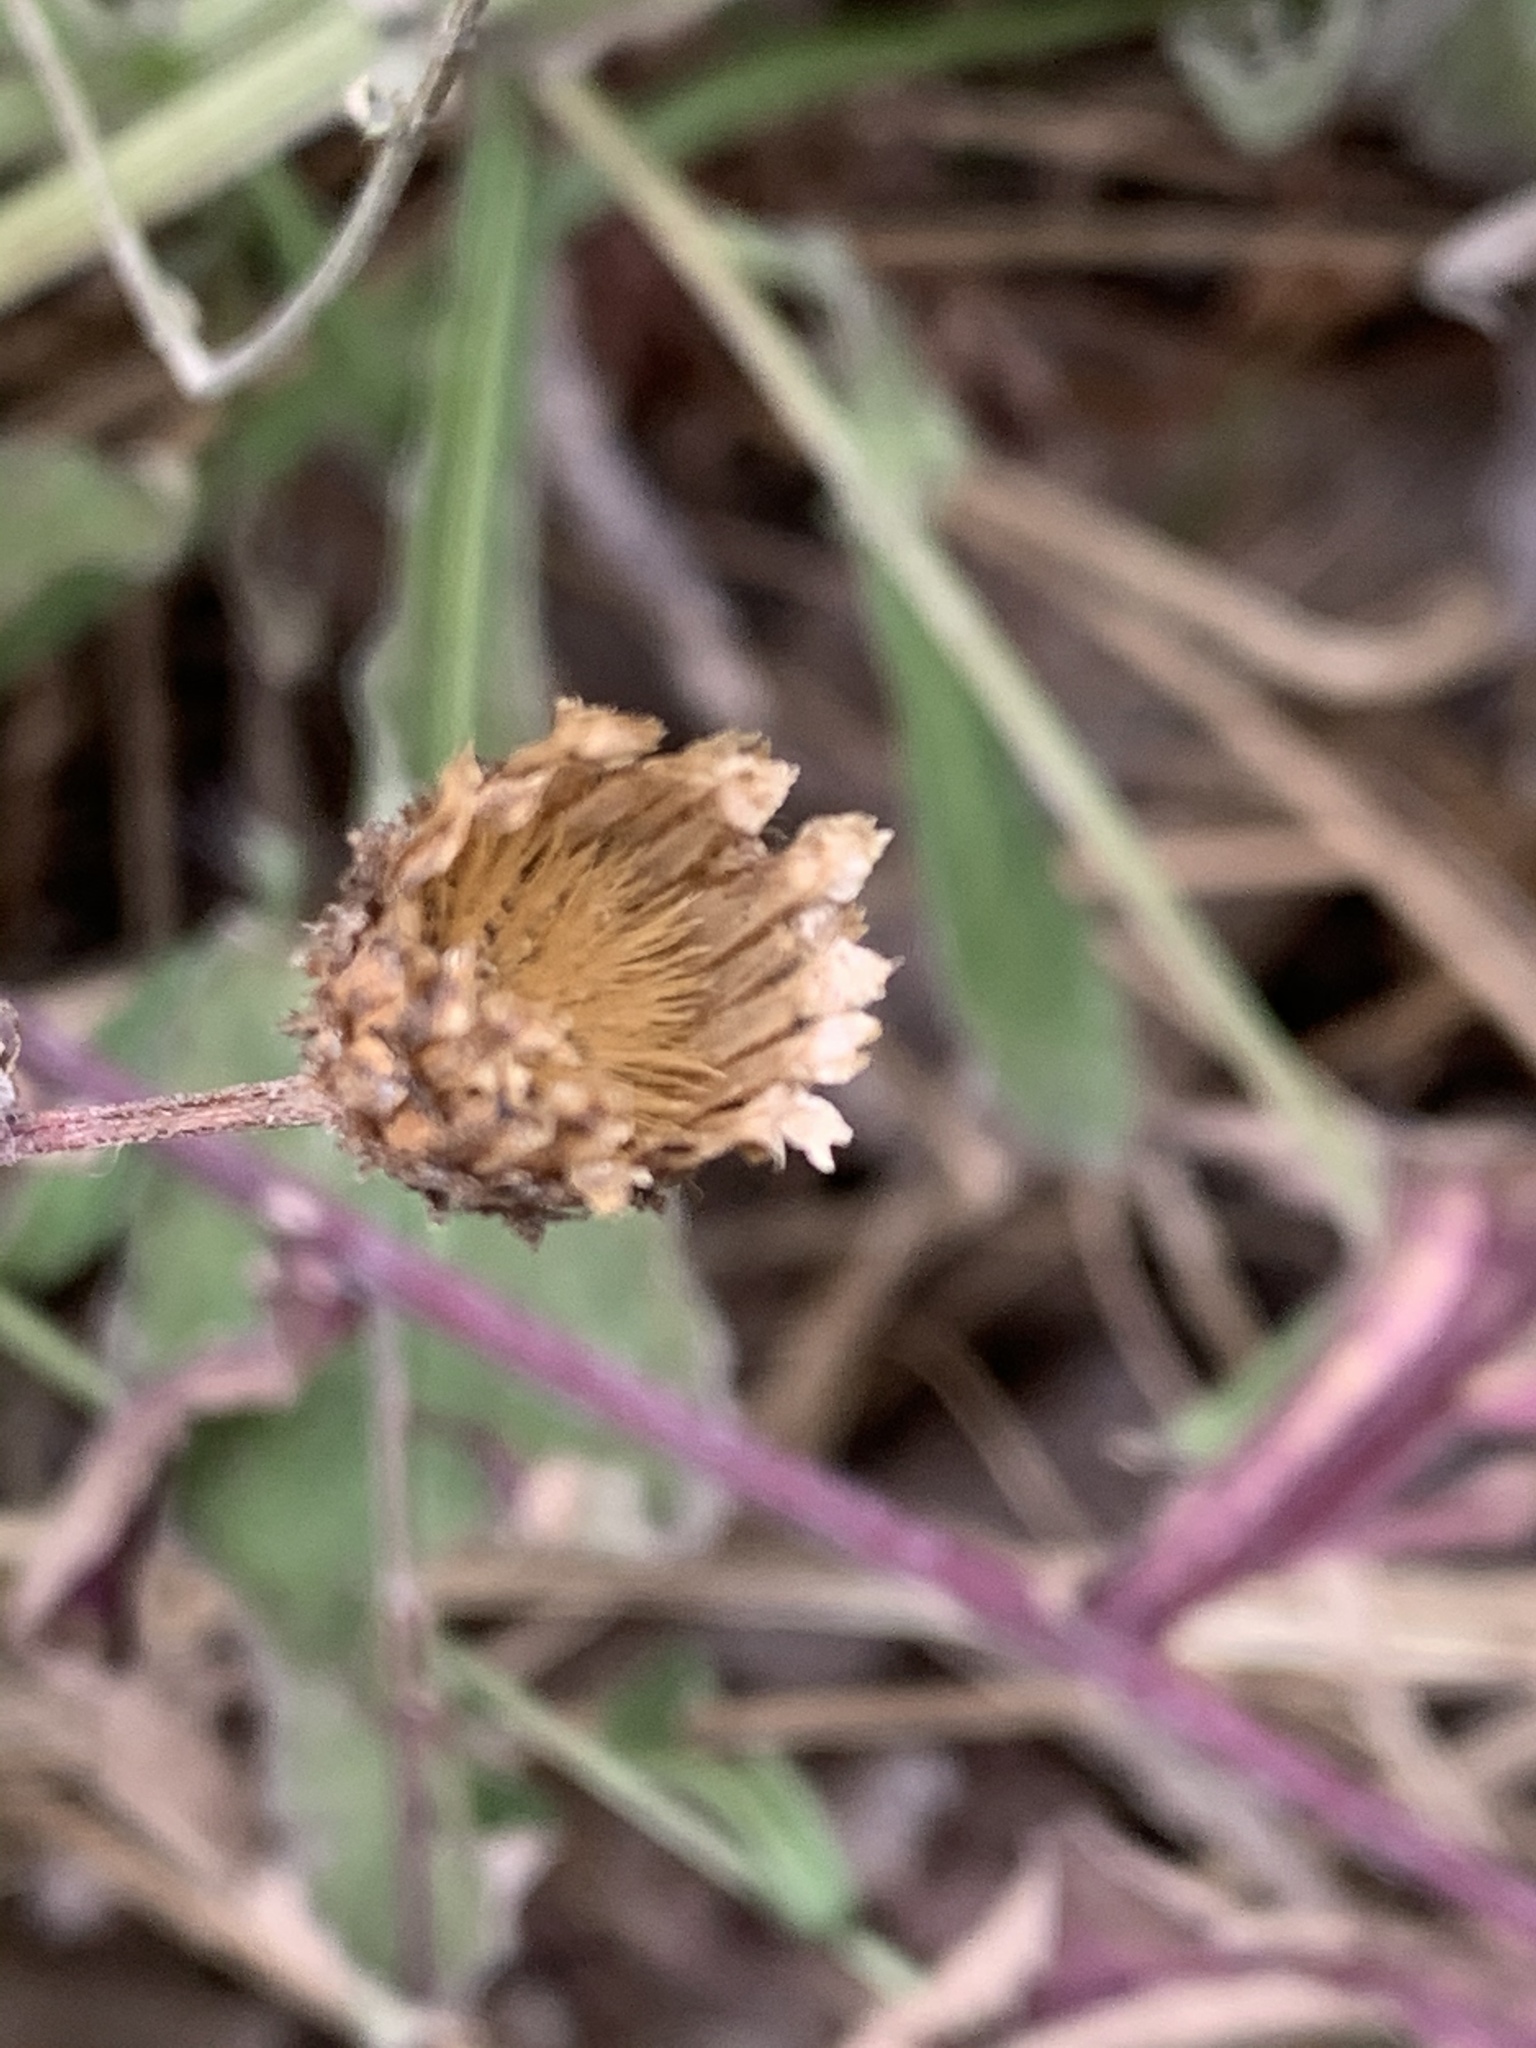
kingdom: Plantae
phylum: Tracheophyta
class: Magnoliopsida
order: Asterales
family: Asteraceae
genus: Centaurea
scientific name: Centaurea nigrescens
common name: Tyrol knapweed
